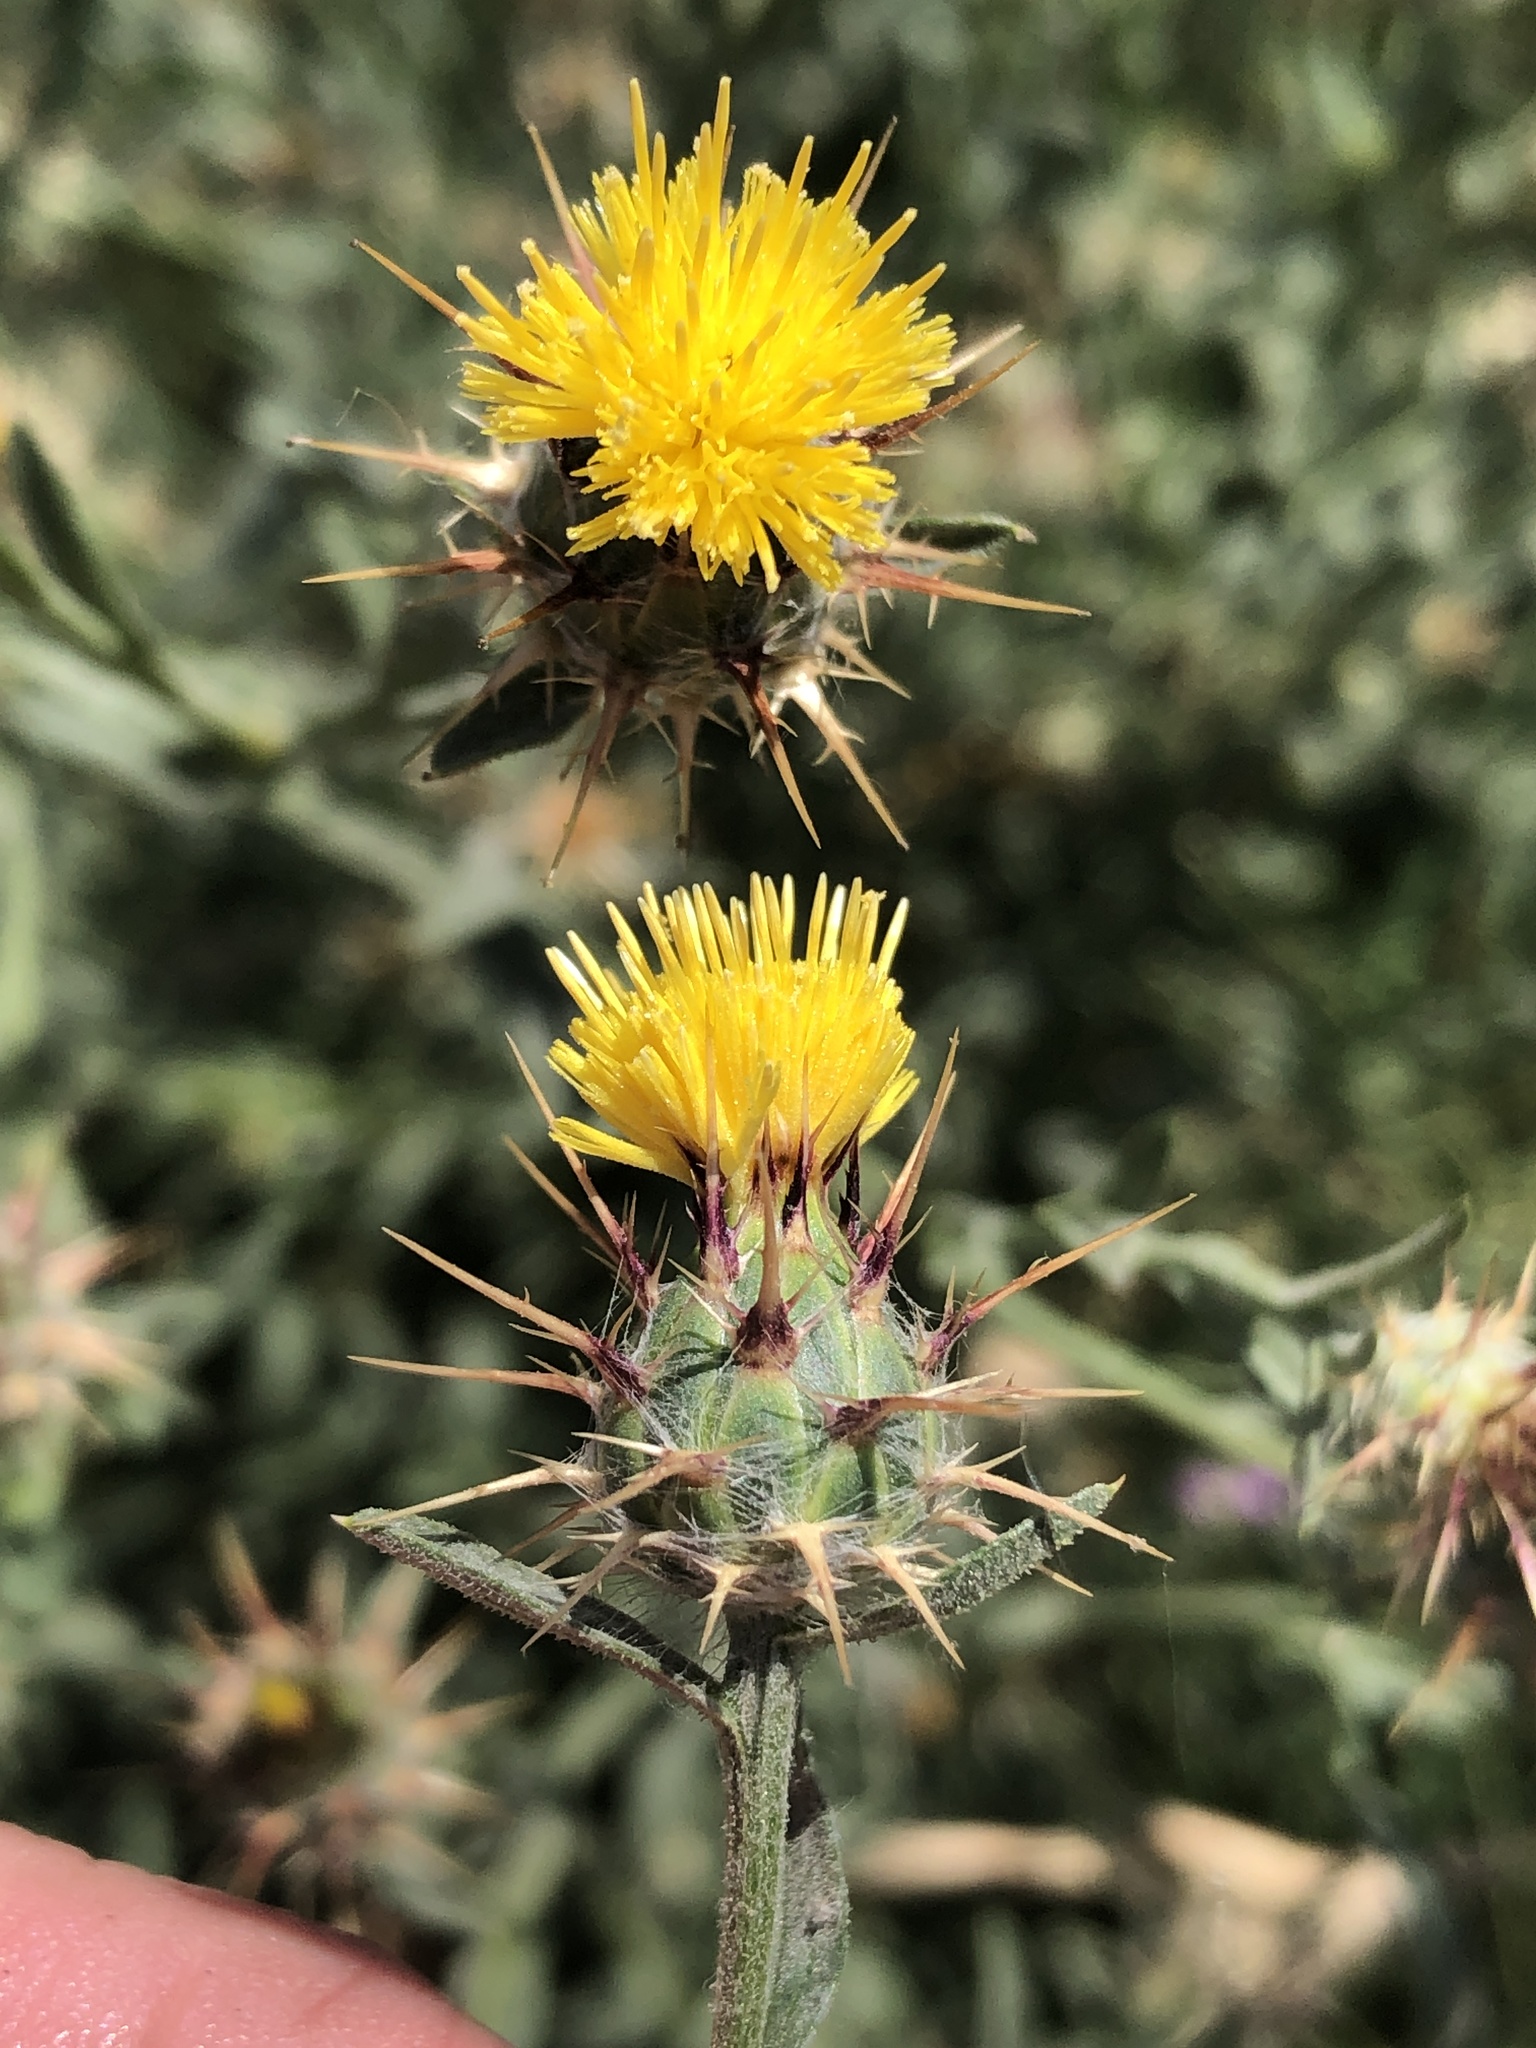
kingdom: Plantae
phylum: Tracheophyta
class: Magnoliopsida
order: Asterales
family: Asteraceae
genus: Centaurea
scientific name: Centaurea melitensis
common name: Maltese star-thistle
